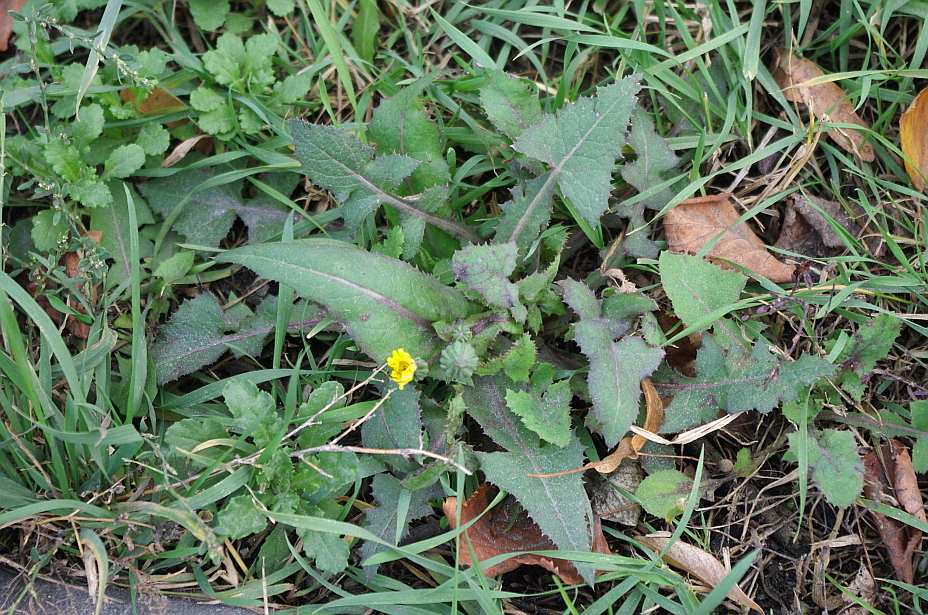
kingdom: Plantae
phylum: Tracheophyta
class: Magnoliopsida
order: Asterales
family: Asteraceae
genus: Sonchus
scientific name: Sonchus oleraceus
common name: Common sowthistle
